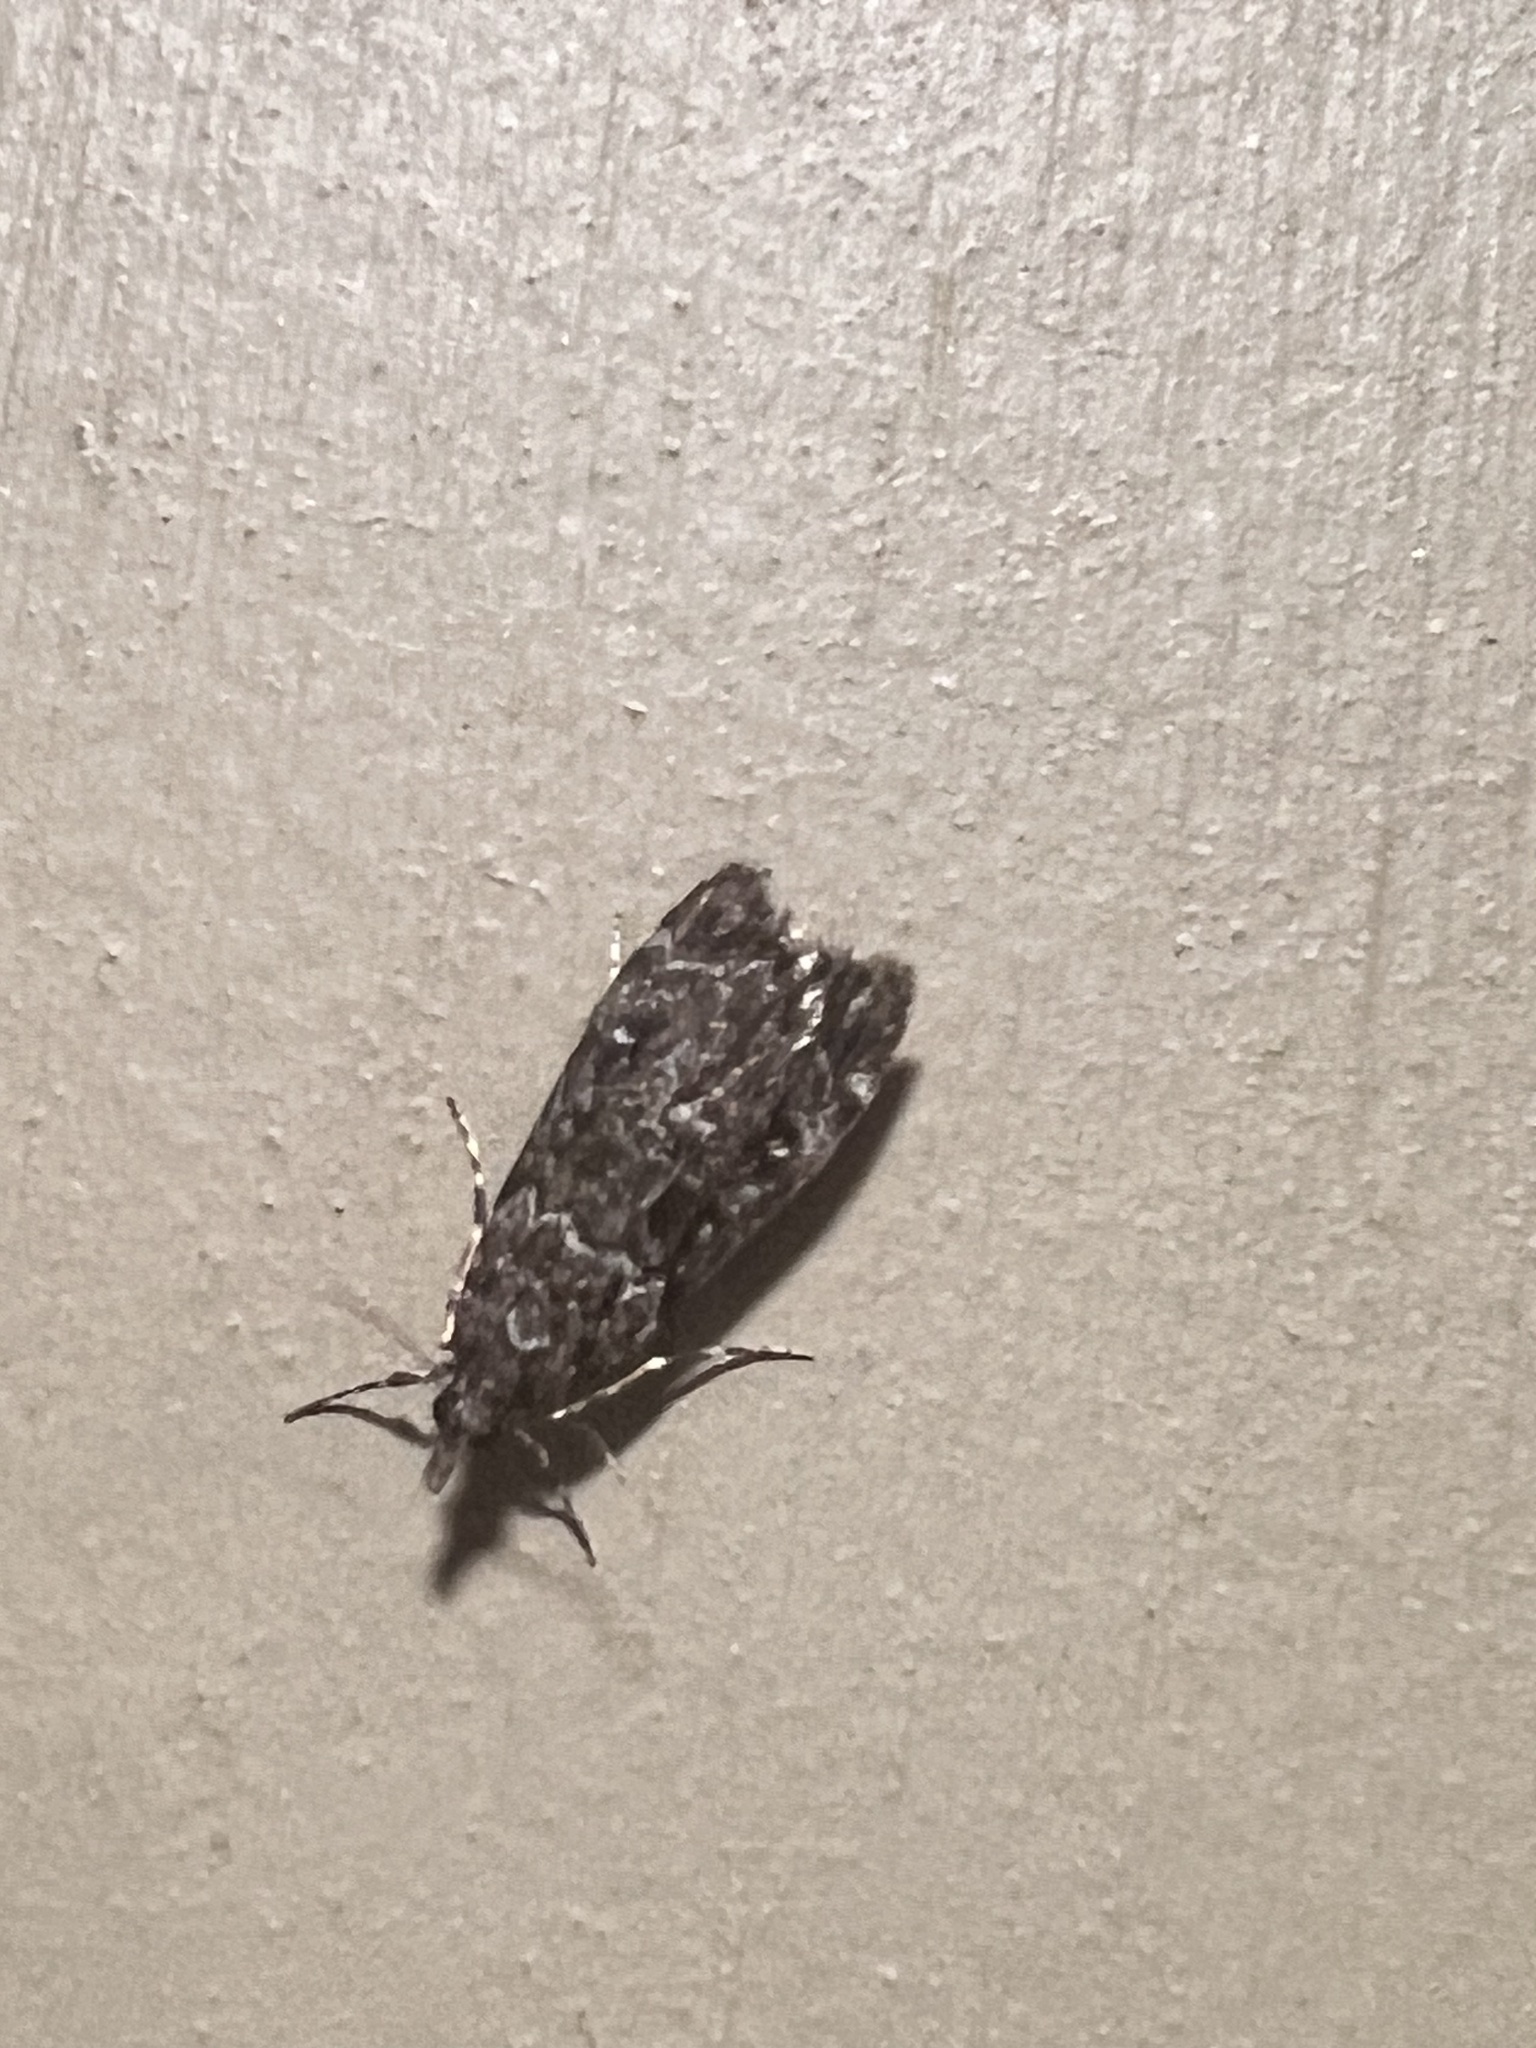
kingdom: Animalia
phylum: Arthropoda
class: Insecta
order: Lepidoptera
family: Crambidae
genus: Eudonia
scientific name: Eudonia philerga
